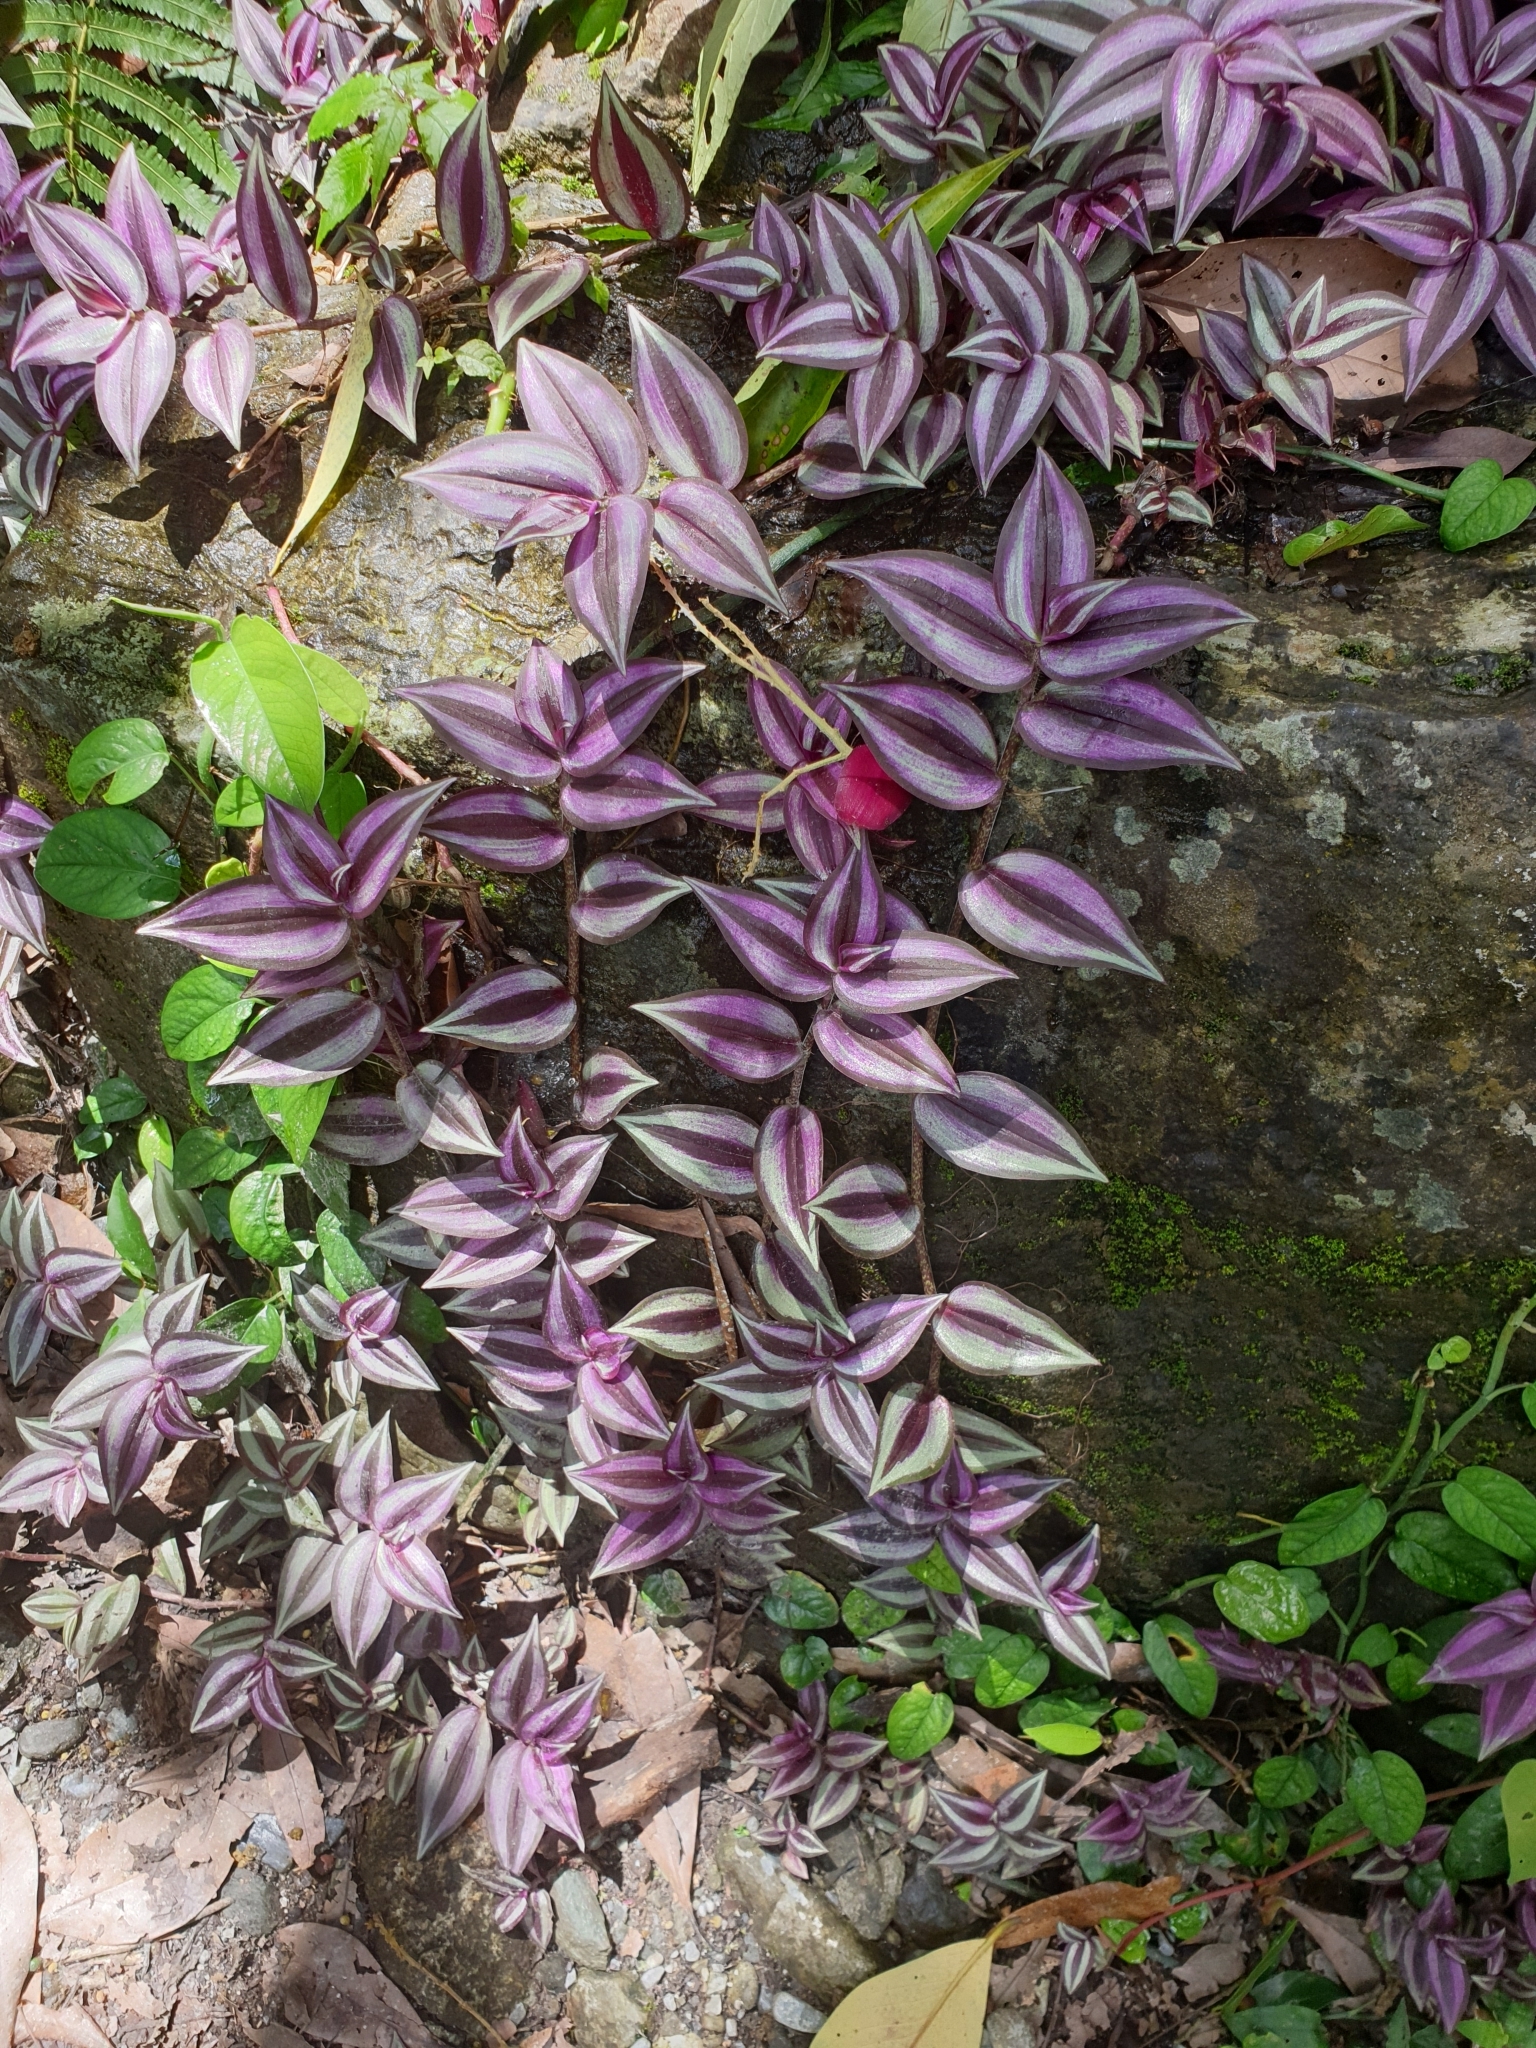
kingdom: Plantae
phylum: Tracheophyta
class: Liliopsida
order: Commelinales
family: Commelinaceae
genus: Tradescantia
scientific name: Tradescantia zebrina
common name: Inchplant
